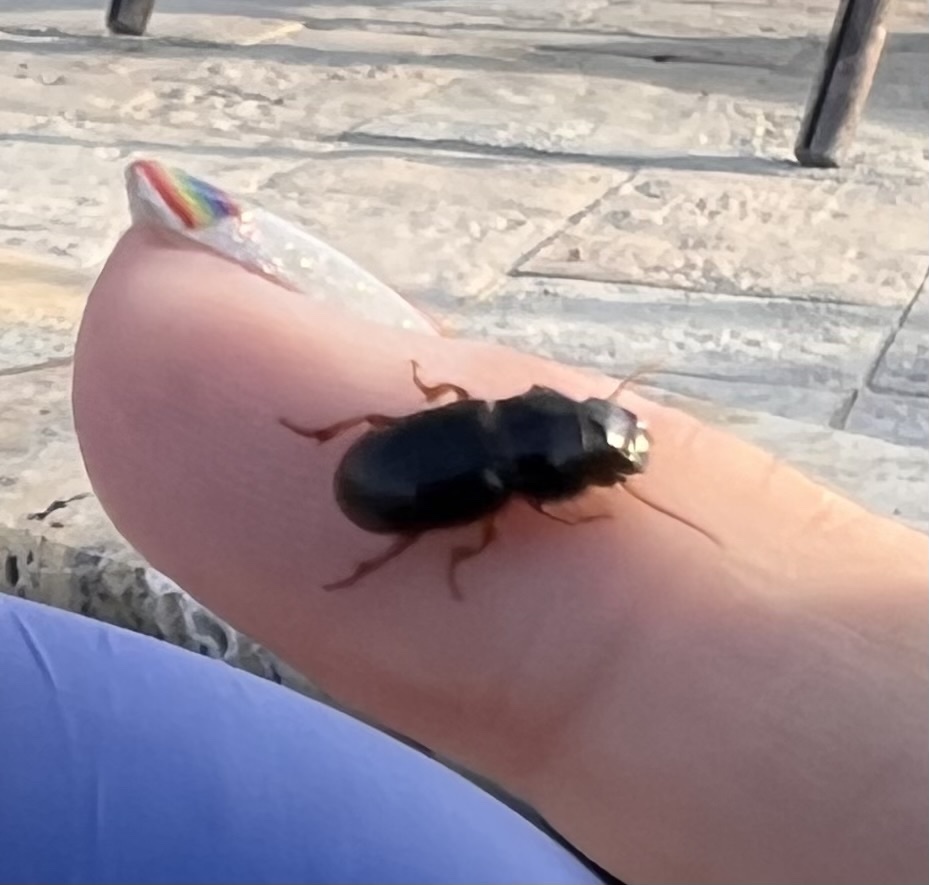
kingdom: Animalia
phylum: Arthropoda
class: Insecta
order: Coleoptera
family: Carabidae
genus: Cratacanthus
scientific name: Cratacanthus dubius
